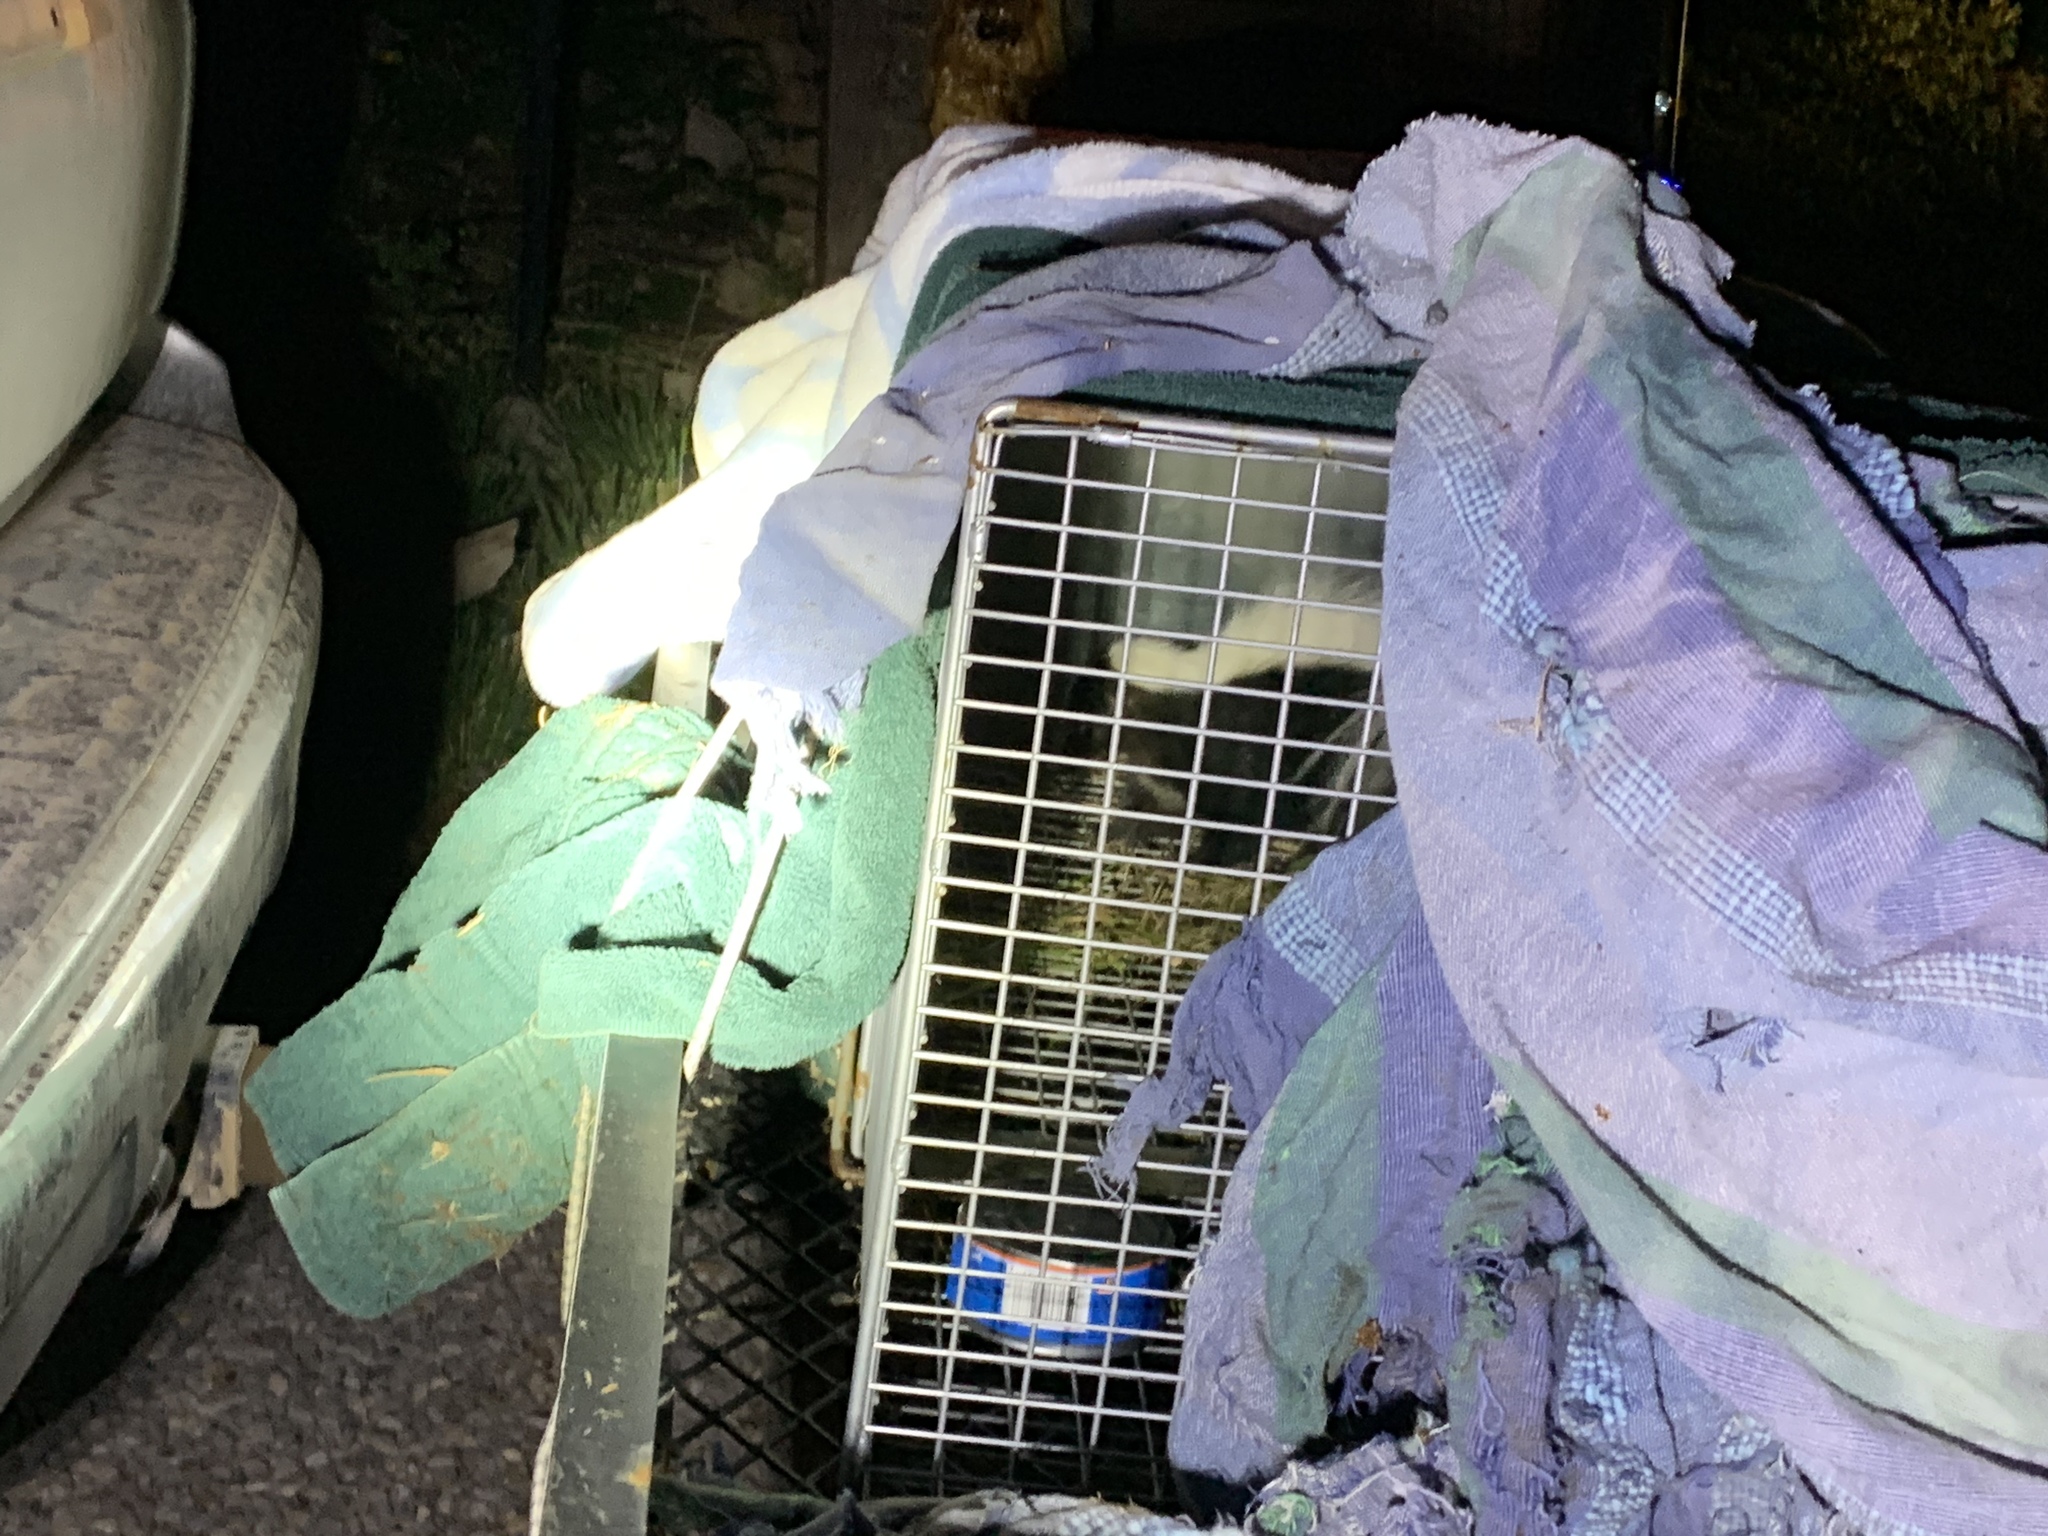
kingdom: Animalia
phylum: Chordata
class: Mammalia
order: Carnivora
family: Mephitidae
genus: Mephitis
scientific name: Mephitis mephitis
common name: Striped skunk
